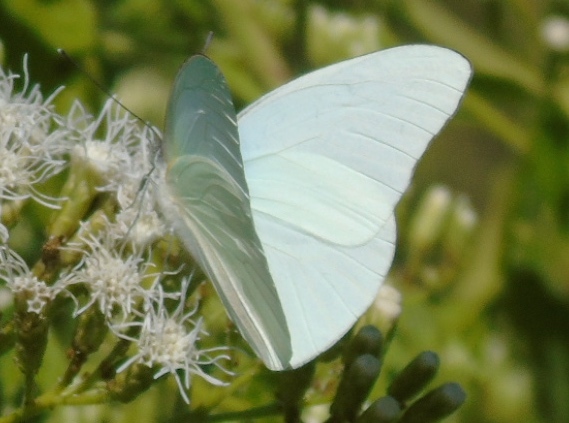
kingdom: Animalia
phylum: Arthropoda
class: Insecta
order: Lepidoptera
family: Pieridae
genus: Glutophrissa
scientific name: Glutophrissa drusilla
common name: Florida white
